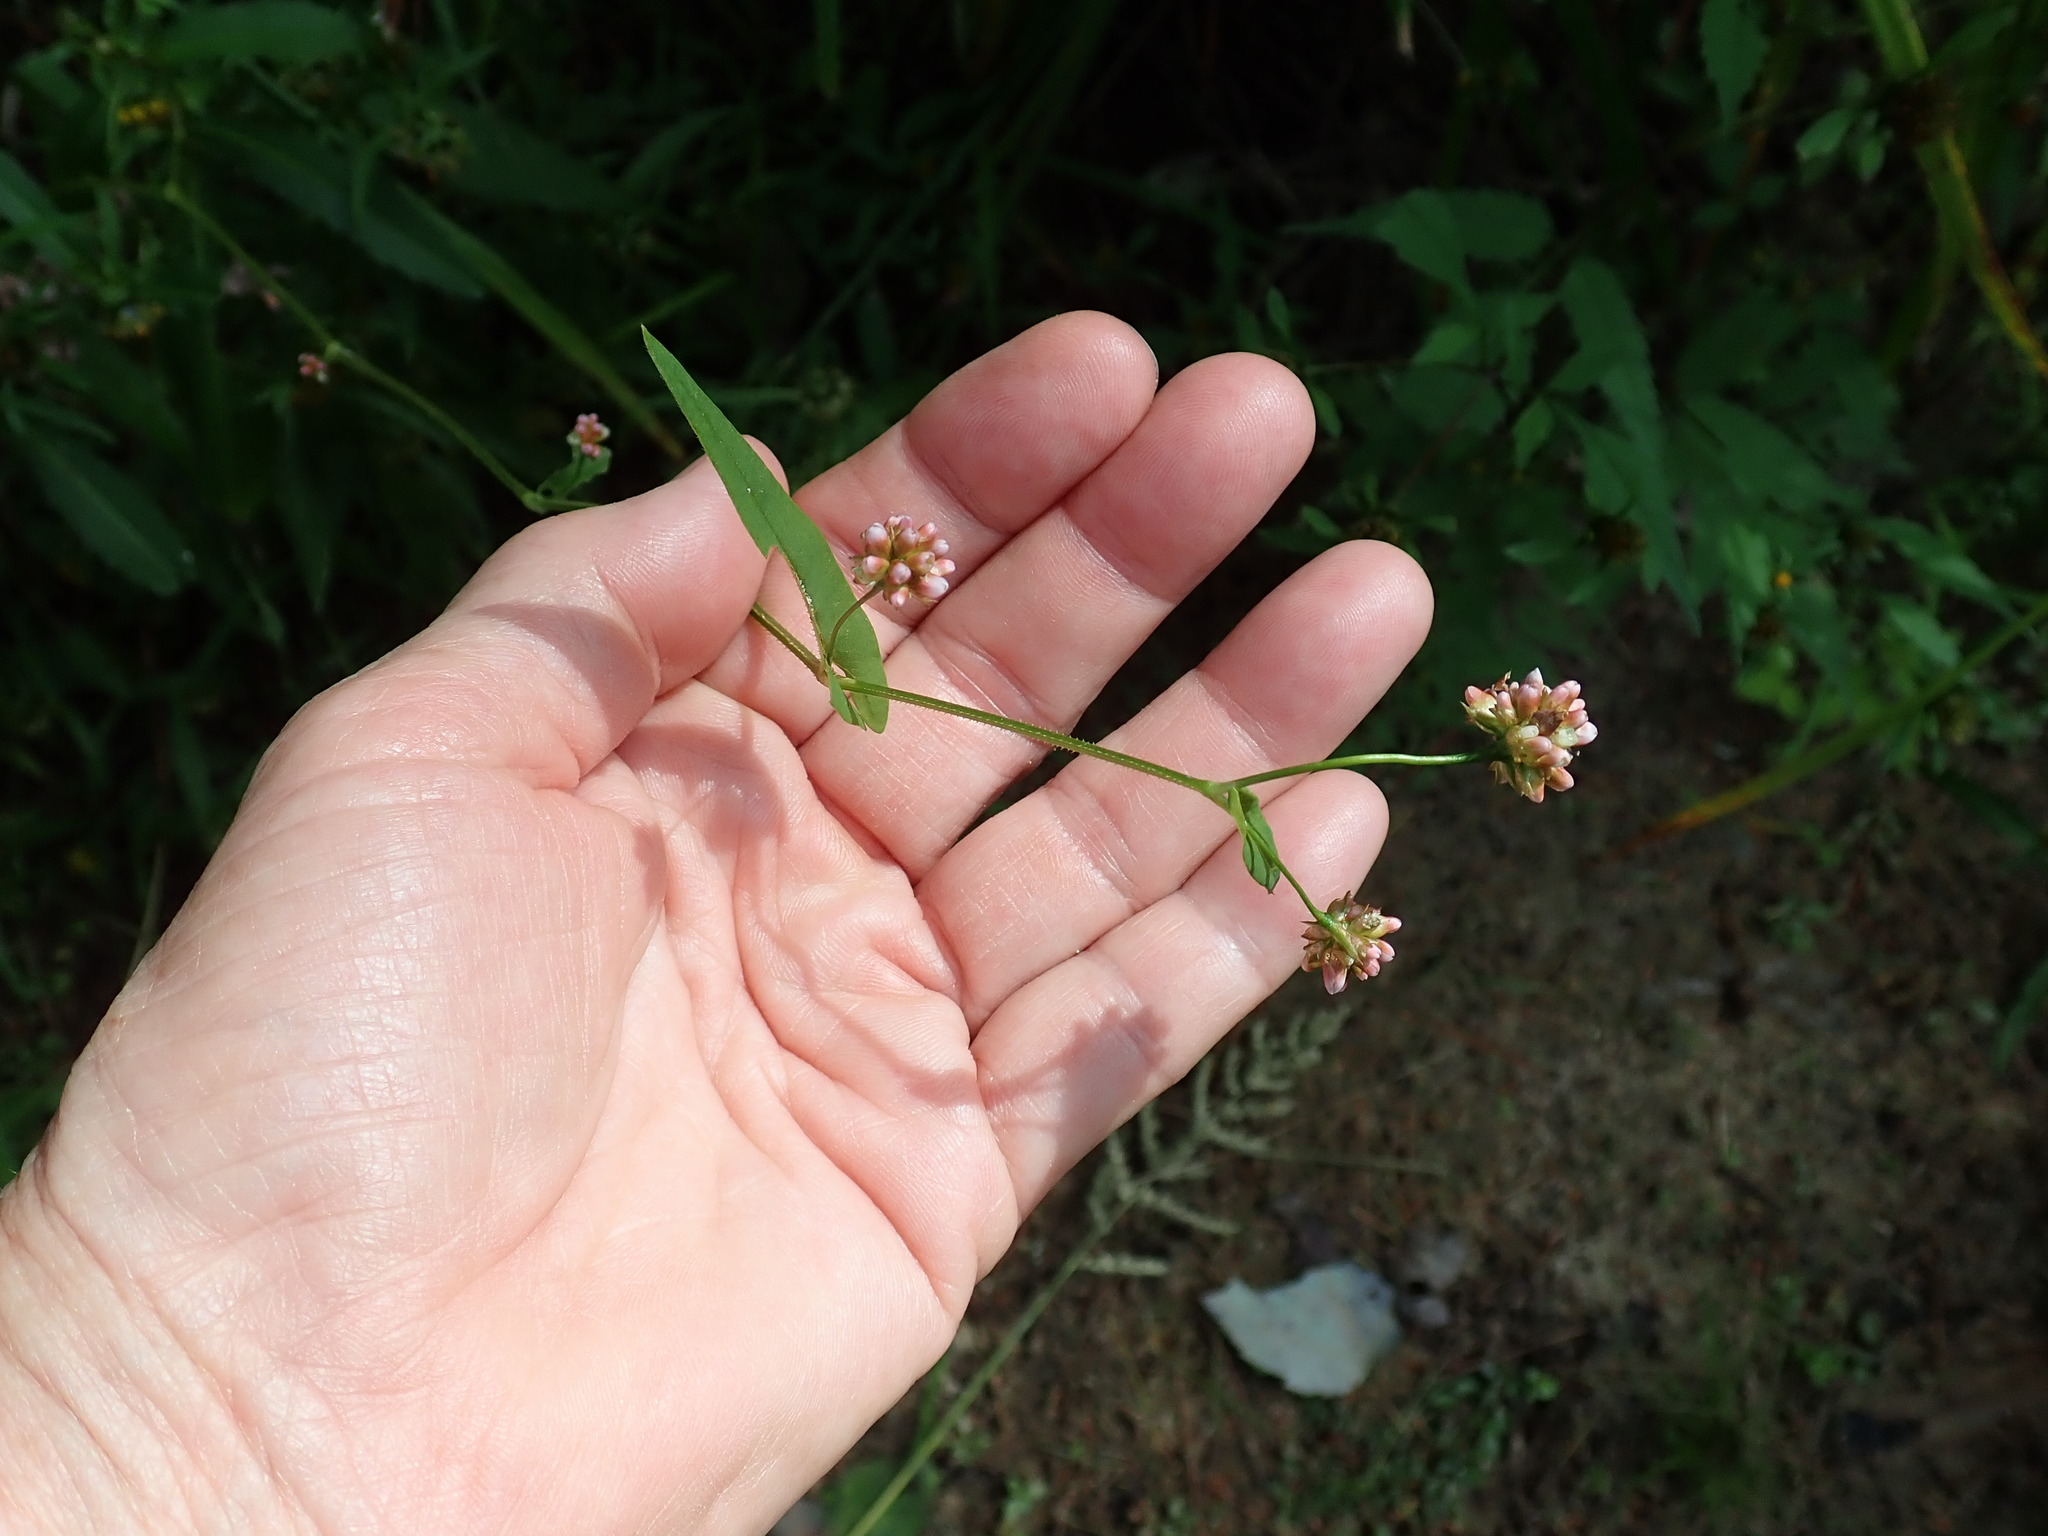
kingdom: Plantae
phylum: Tracheophyta
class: Magnoliopsida
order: Caryophyllales
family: Polygonaceae
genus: Persicaria
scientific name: Persicaria sagittata
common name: American tearthumb
